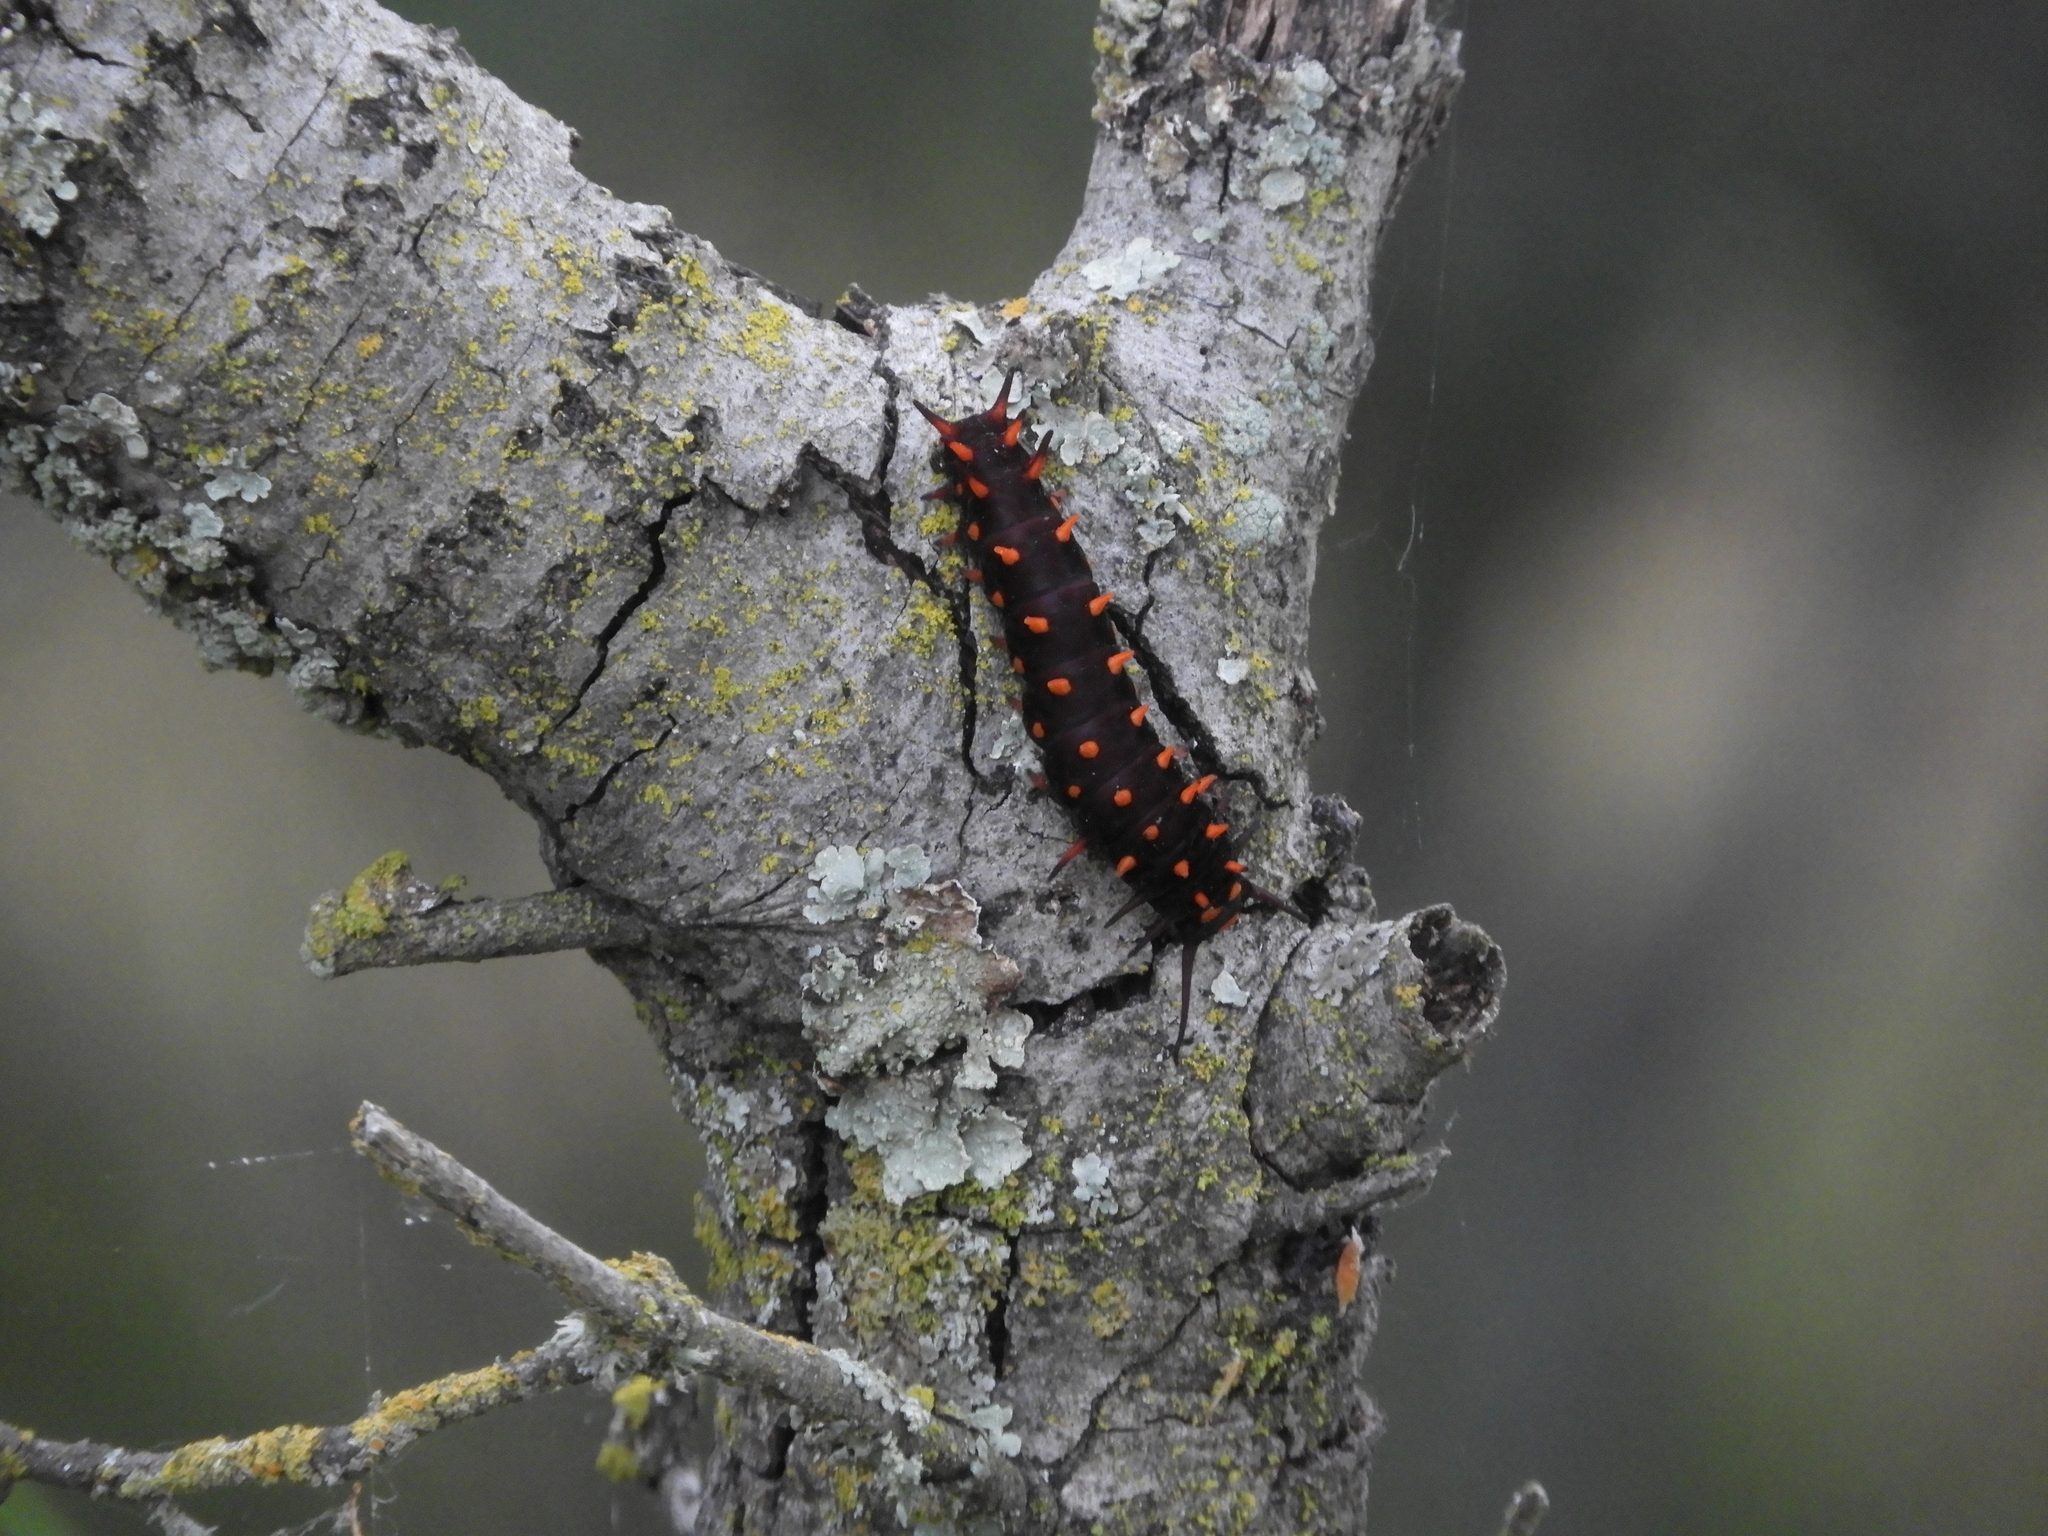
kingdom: Animalia
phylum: Arthropoda
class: Insecta
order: Lepidoptera
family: Papilionidae
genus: Battus
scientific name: Battus philenor
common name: Pipevine swallowtail
